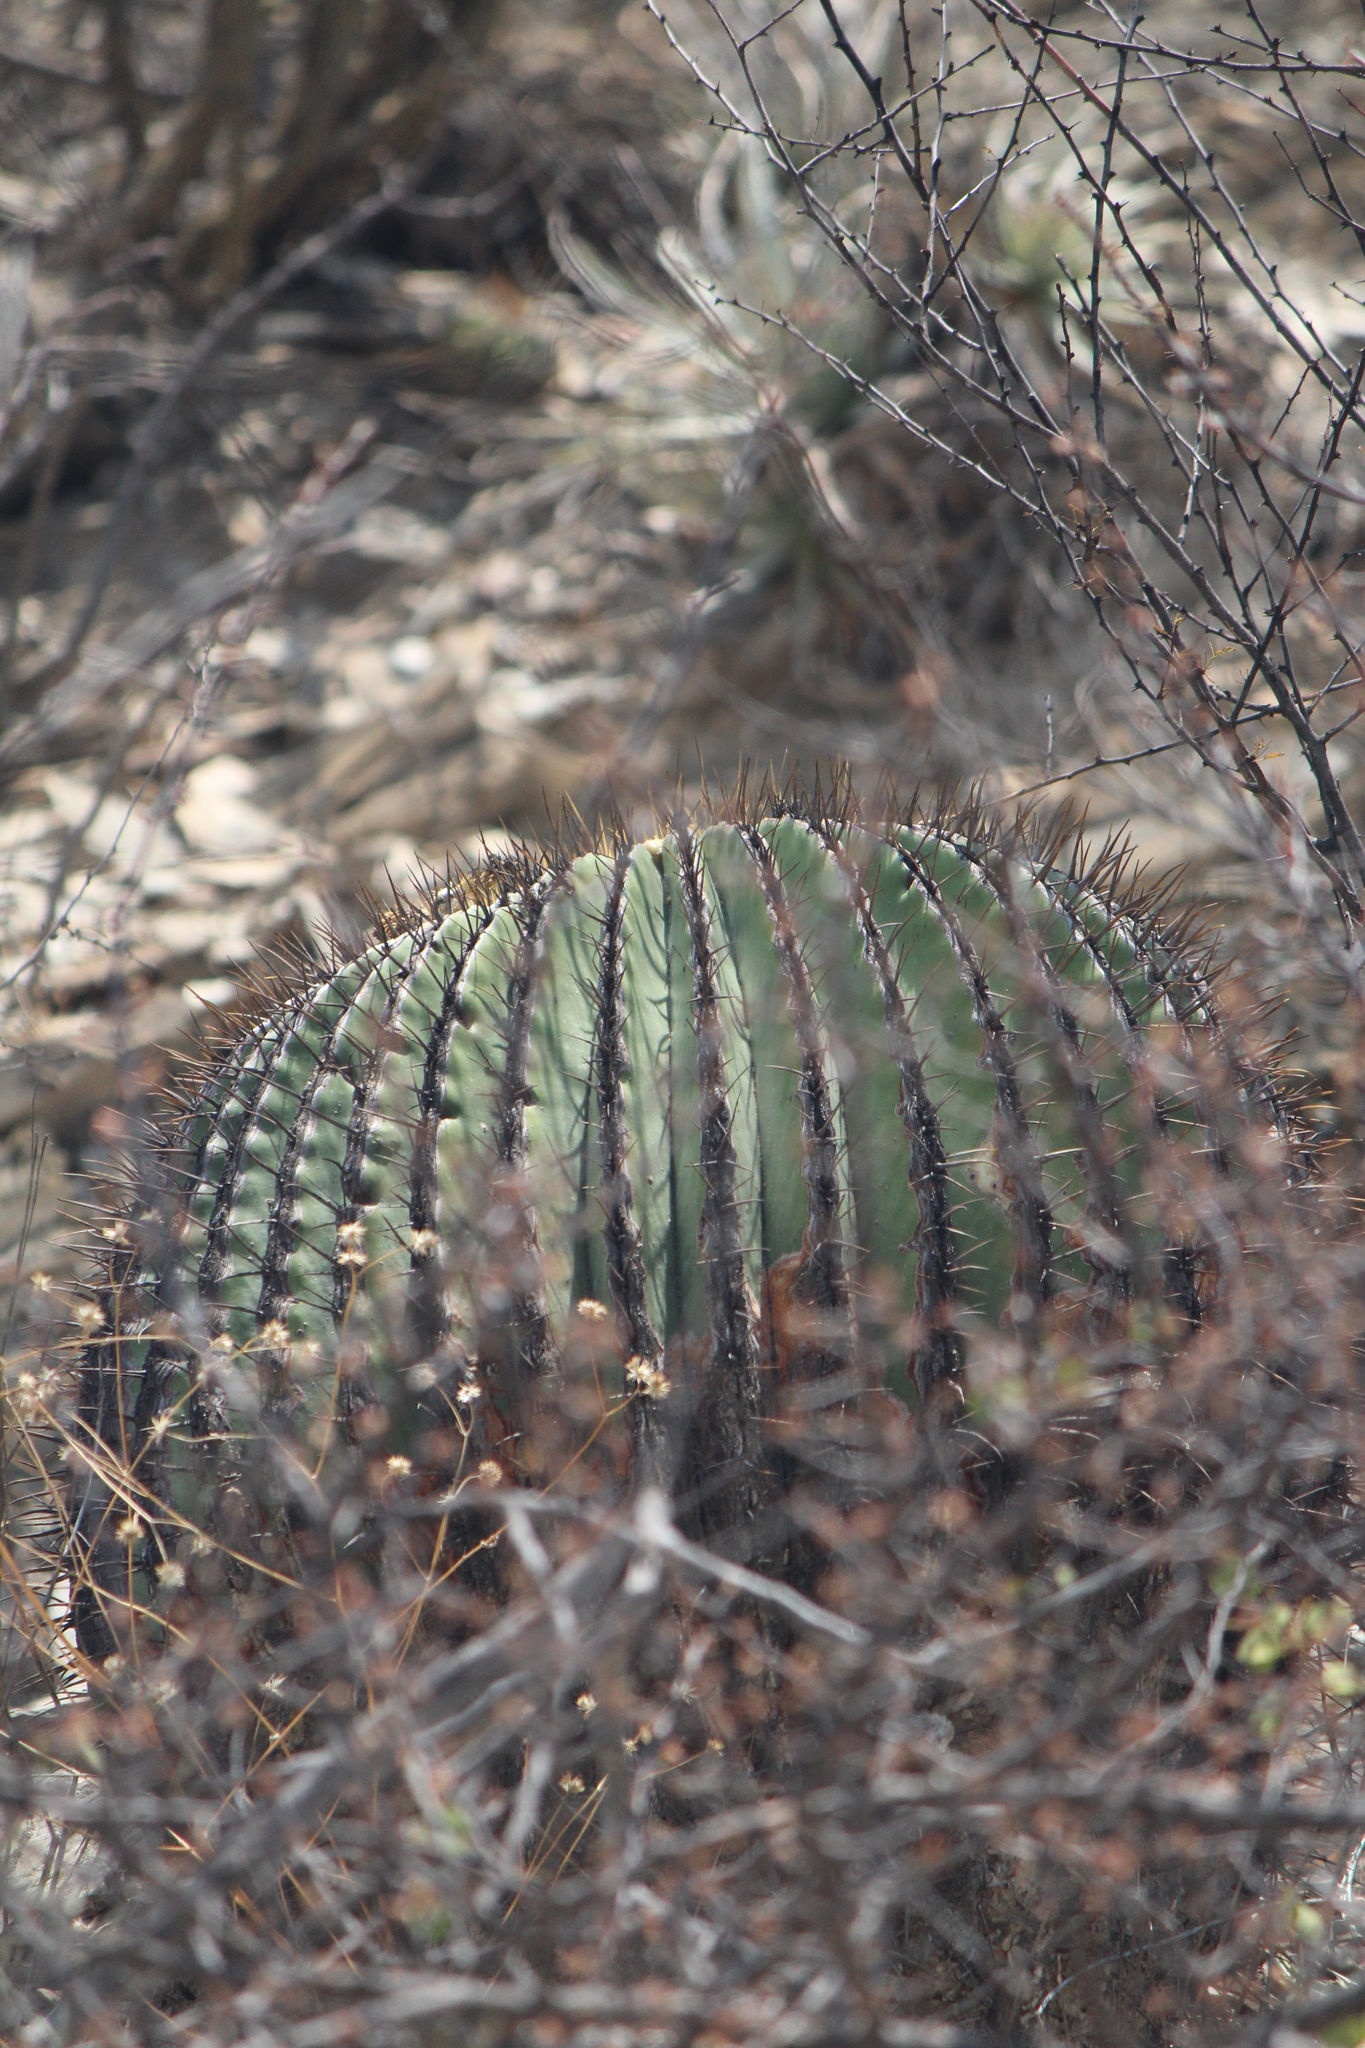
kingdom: Plantae
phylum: Tracheophyta
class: Magnoliopsida
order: Caryophyllales
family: Cactaceae
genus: Echinocactus
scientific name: Echinocactus platyacanthus
